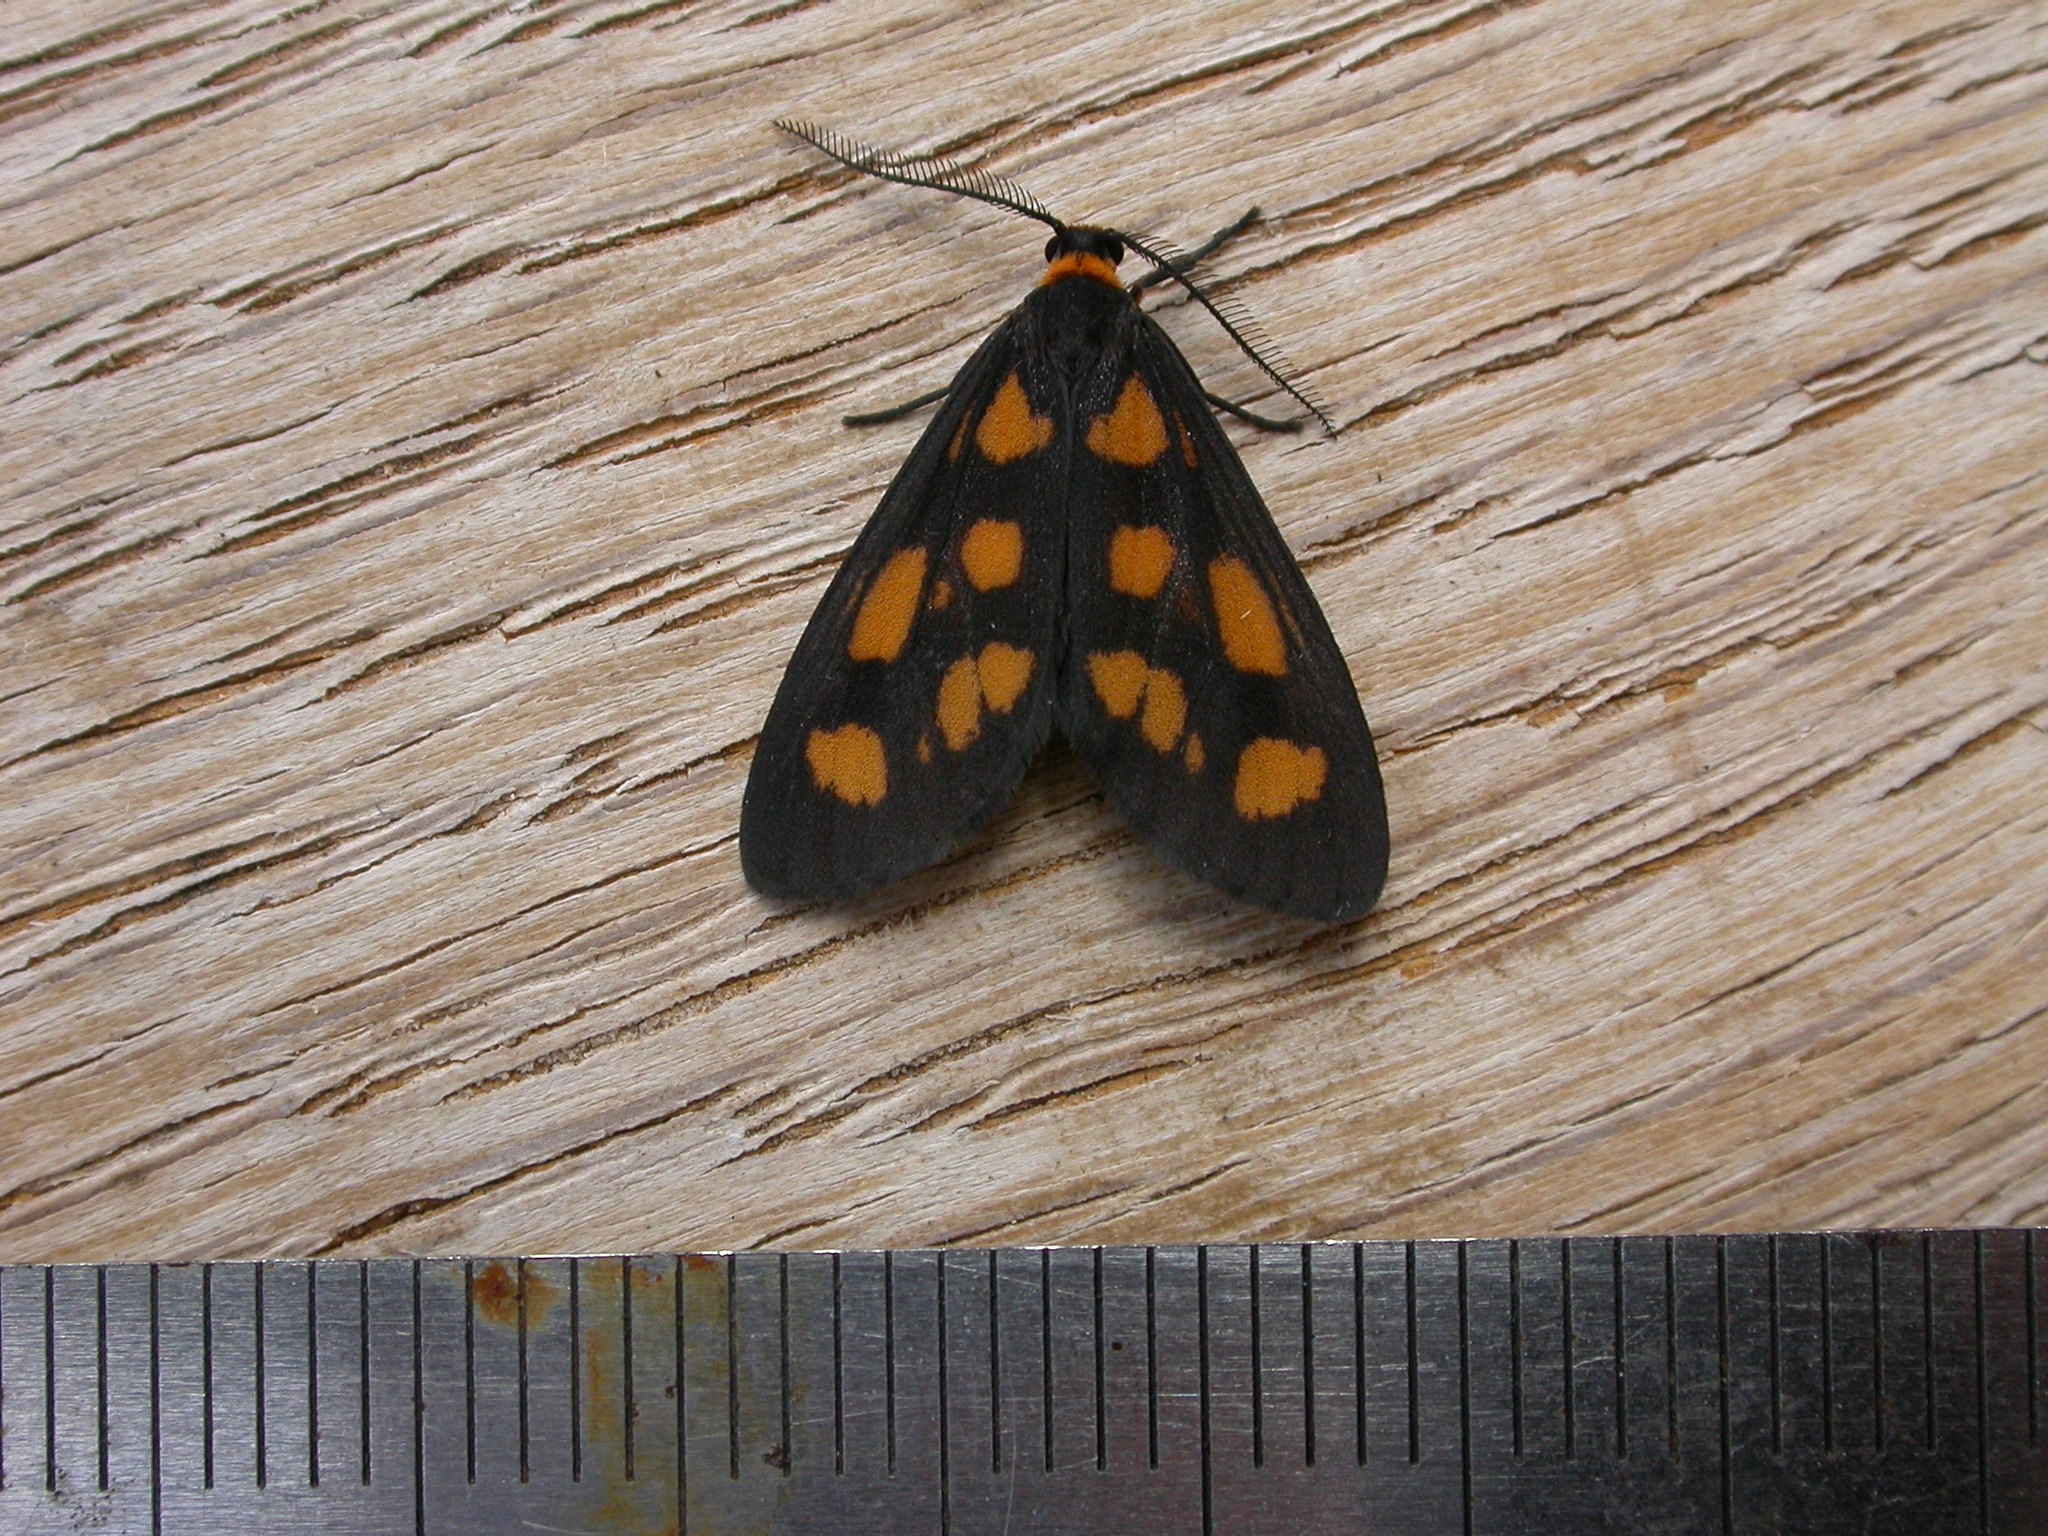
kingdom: Animalia
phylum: Arthropoda
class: Insecta
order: Lepidoptera
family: Erebidae
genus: Asura
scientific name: Asura cervicalis
